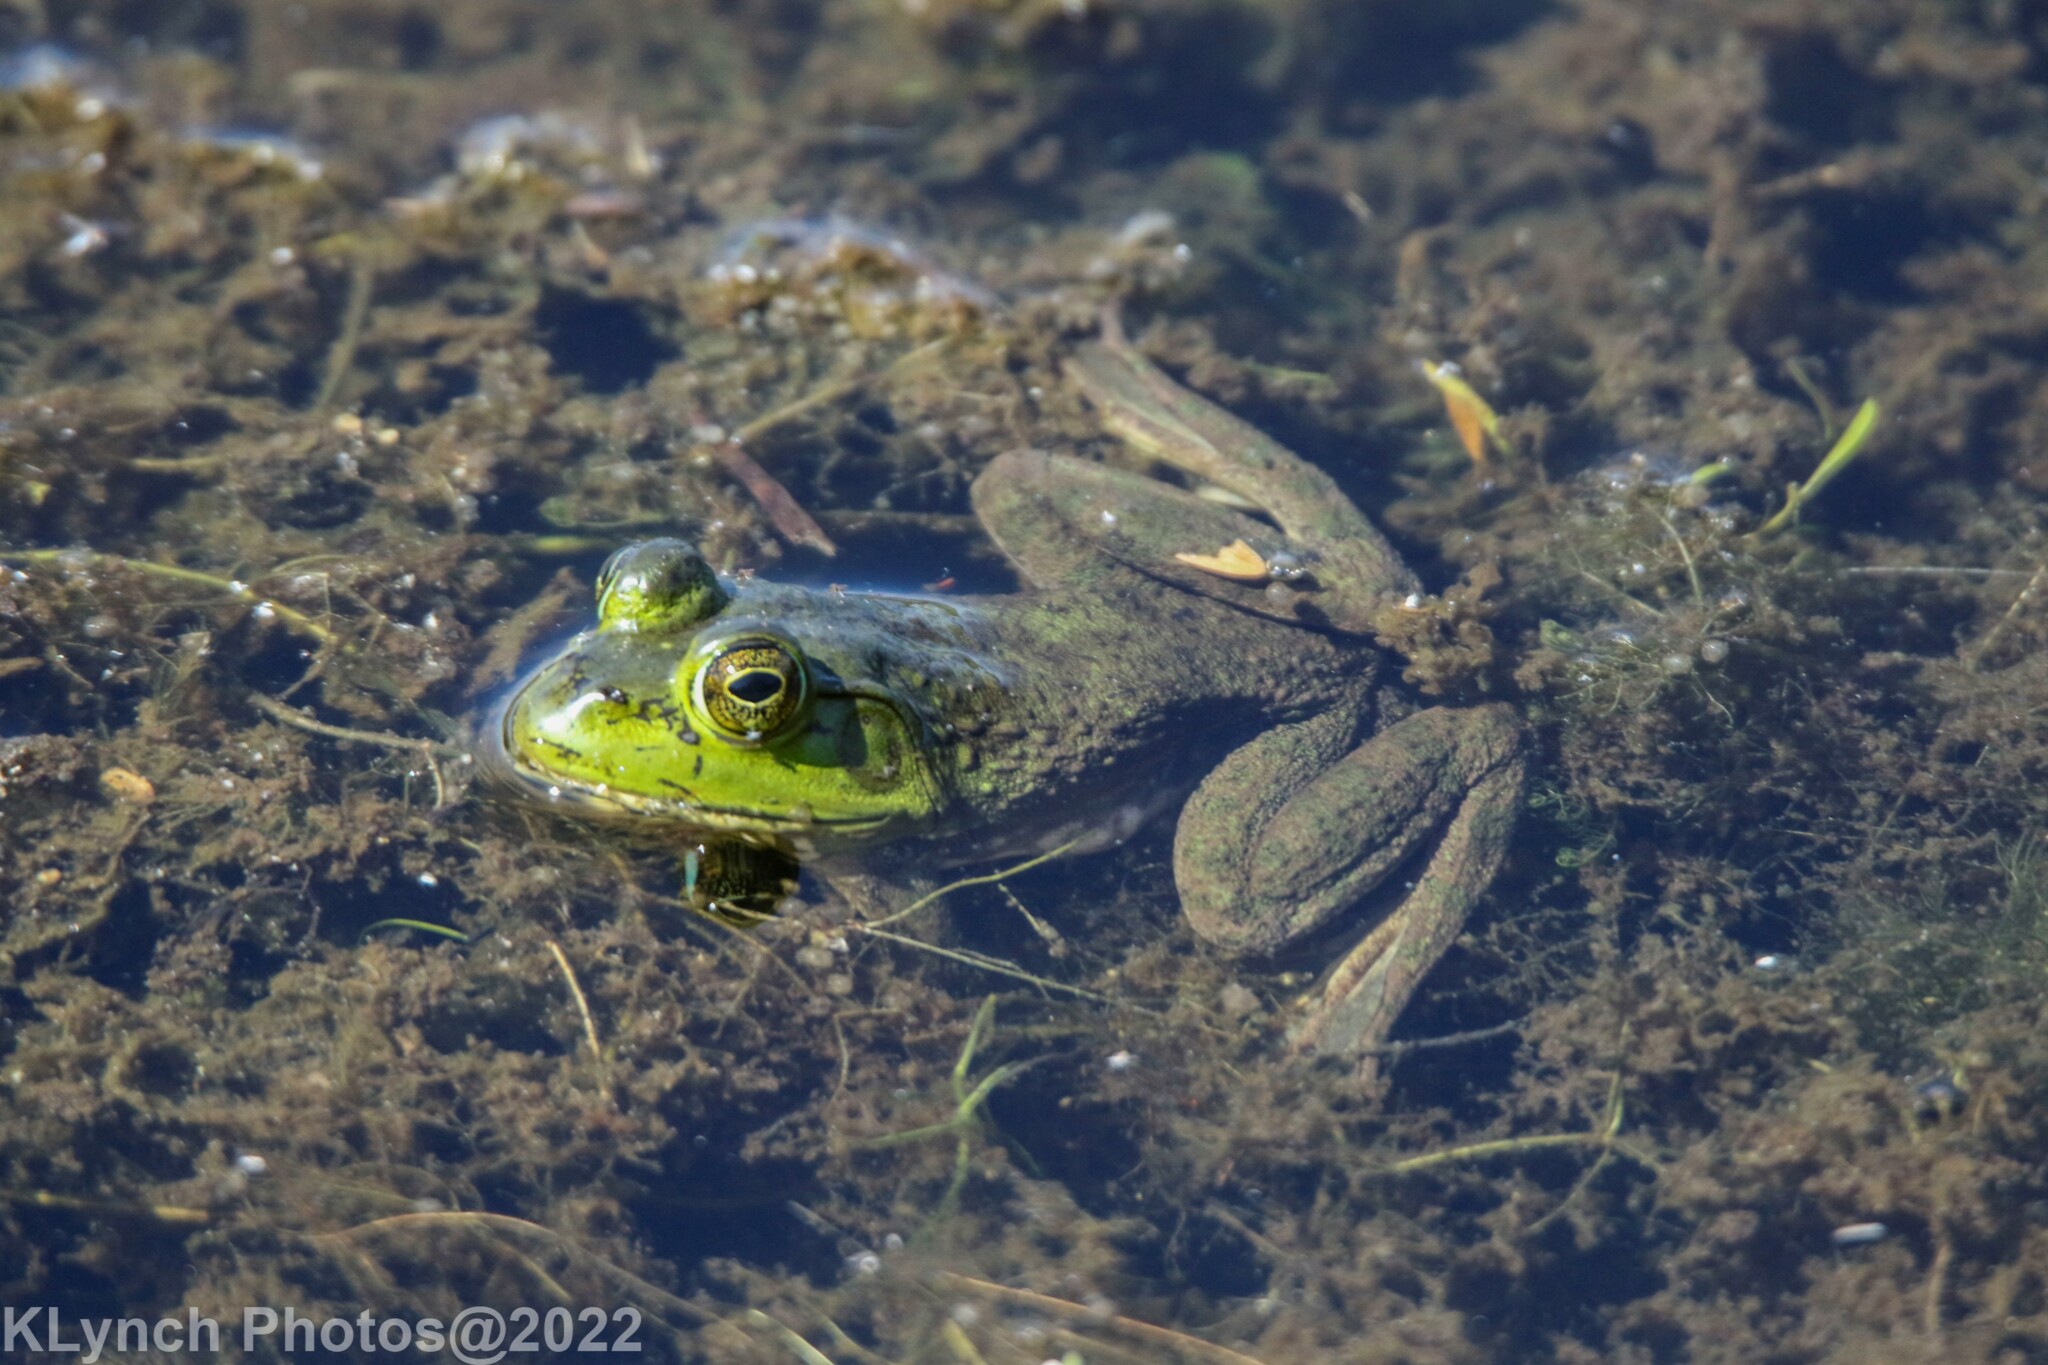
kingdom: Animalia
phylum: Chordata
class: Amphibia
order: Anura
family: Ranidae
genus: Lithobates
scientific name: Lithobates catesbeianus
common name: American bullfrog
